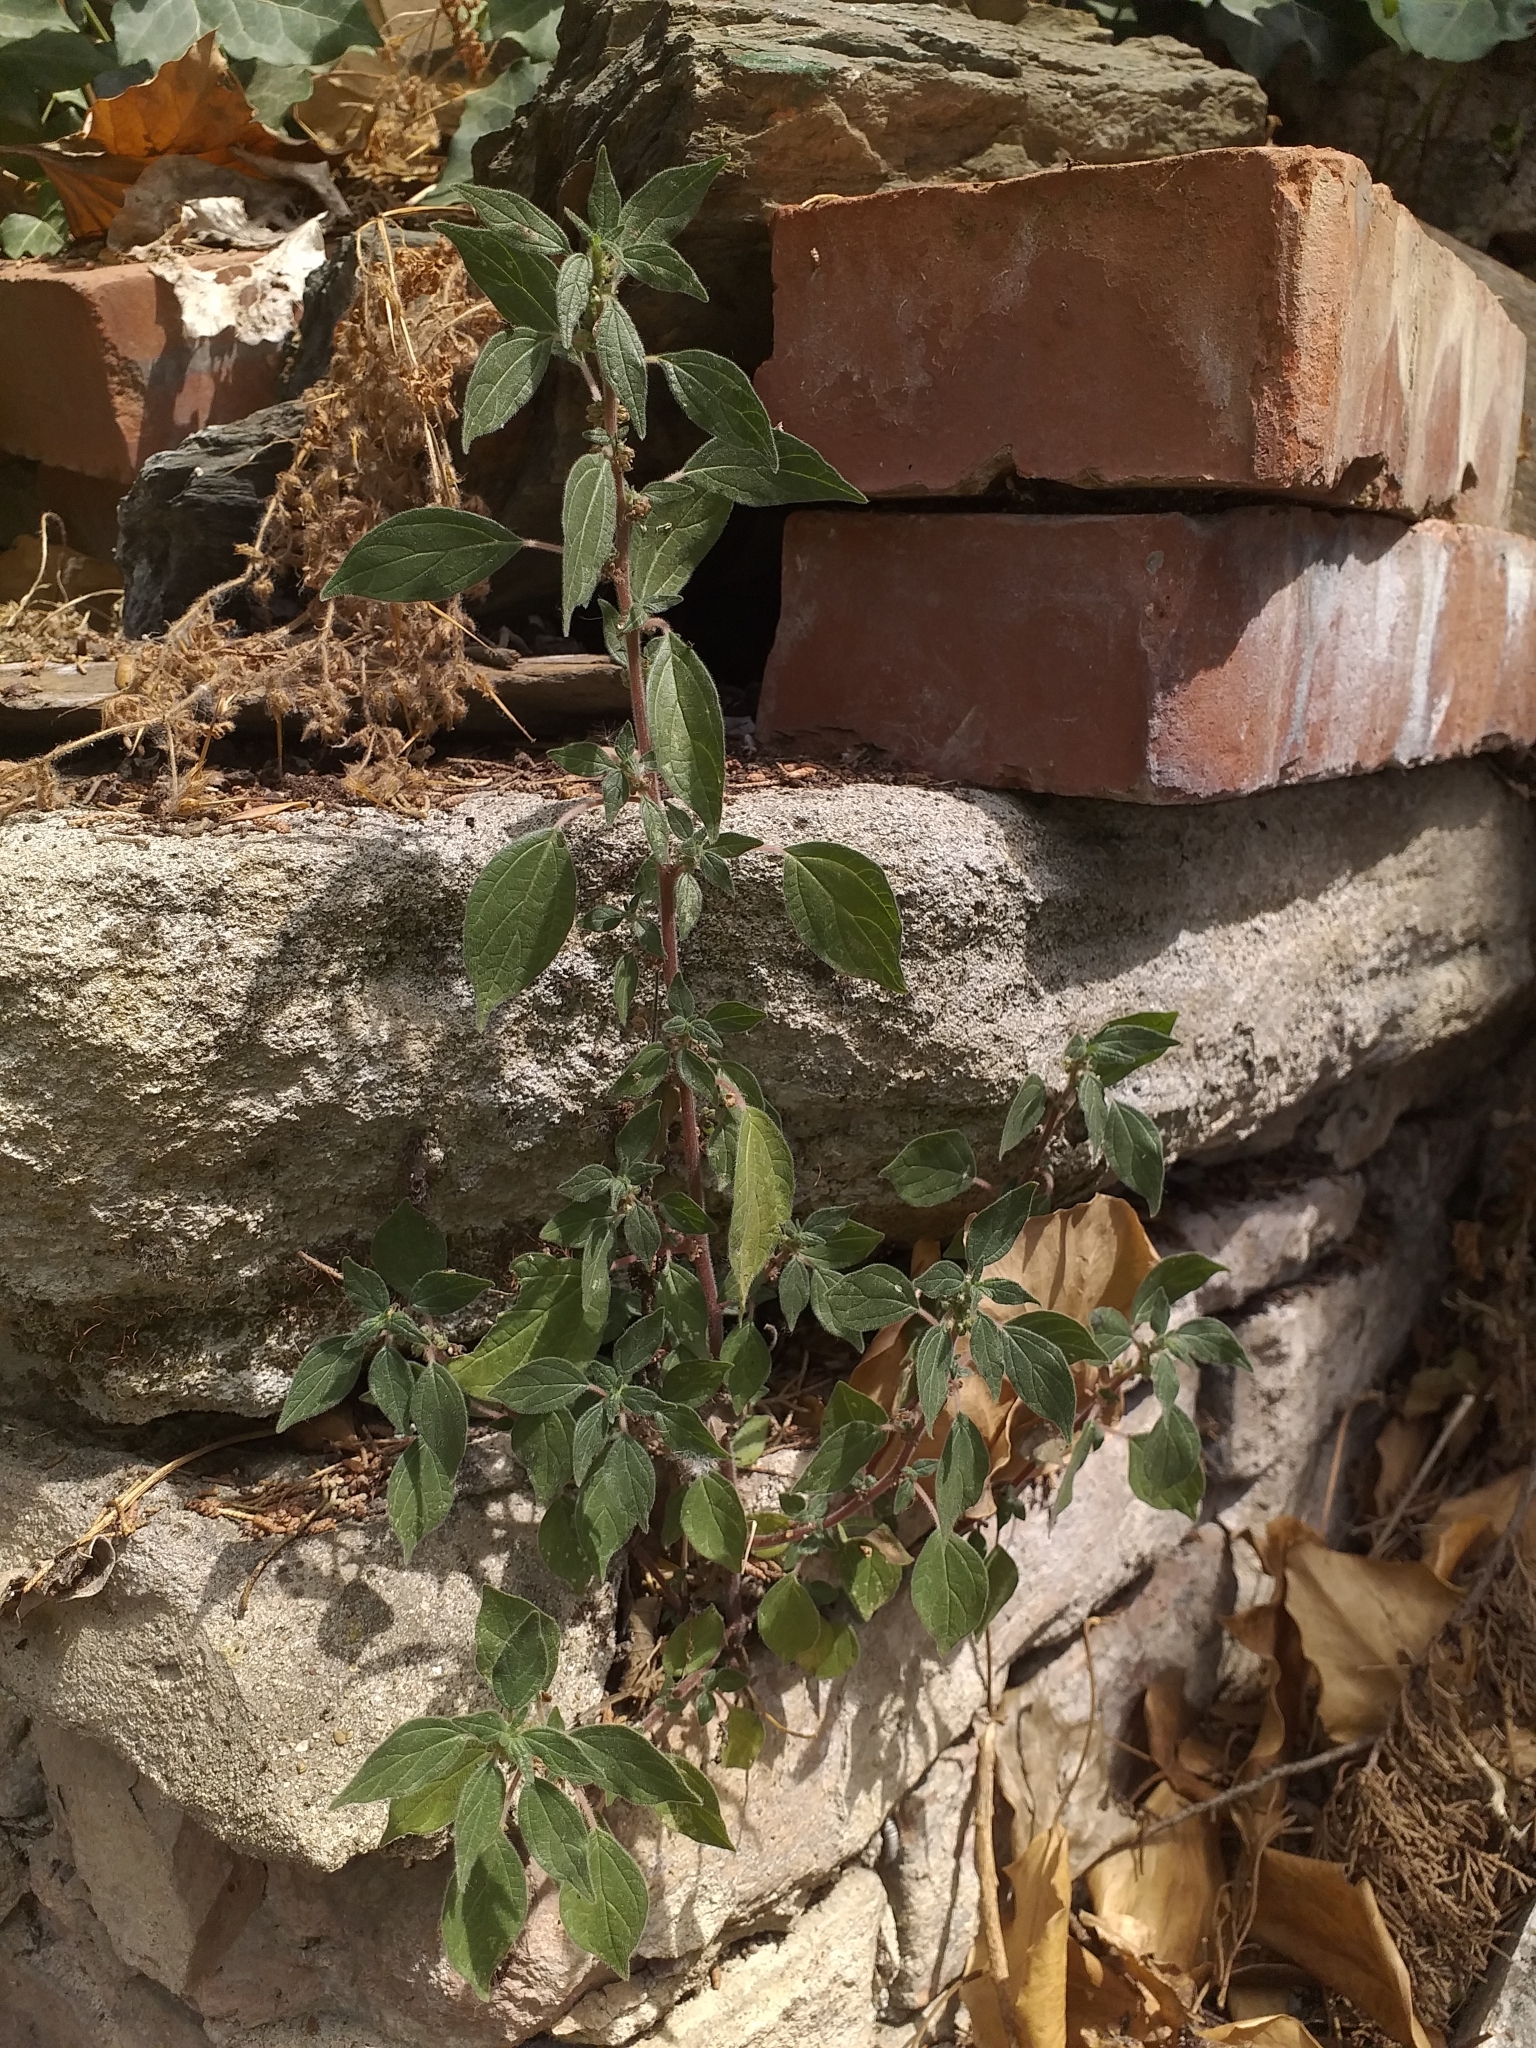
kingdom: Plantae
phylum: Tracheophyta
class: Magnoliopsida
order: Rosales
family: Urticaceae
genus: Parietaria
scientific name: Parietaria judaica
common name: Pellitory-of-the-wall
